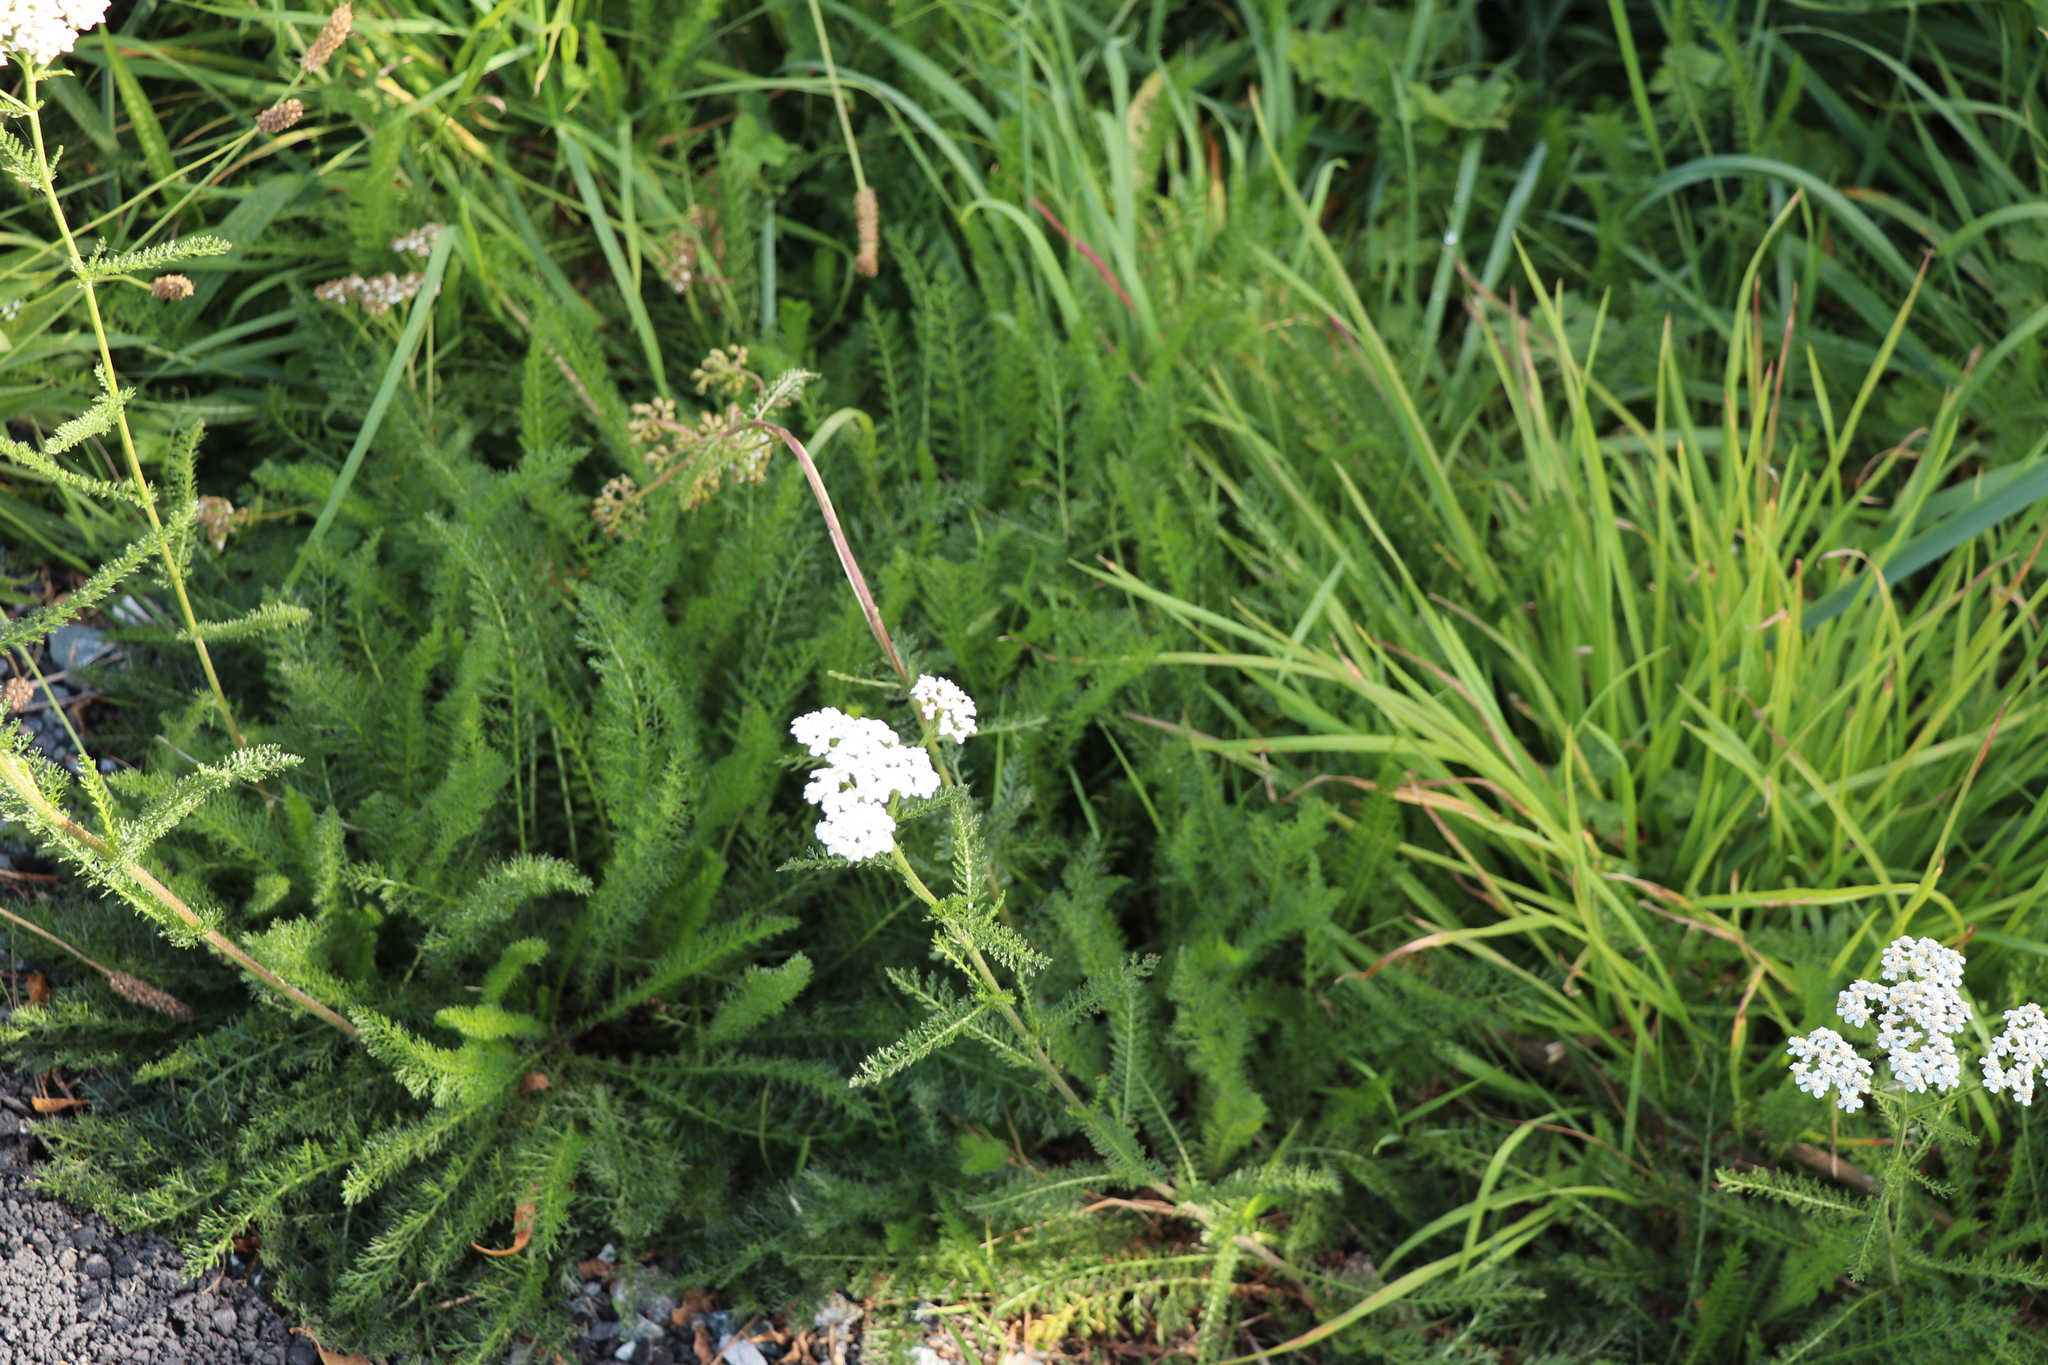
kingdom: Plantae
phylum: Tracheophyta
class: Magnoliopsida
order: Asterales
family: Asteraceae
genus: Achillea
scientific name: Achillea millefolium
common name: Yarrow
